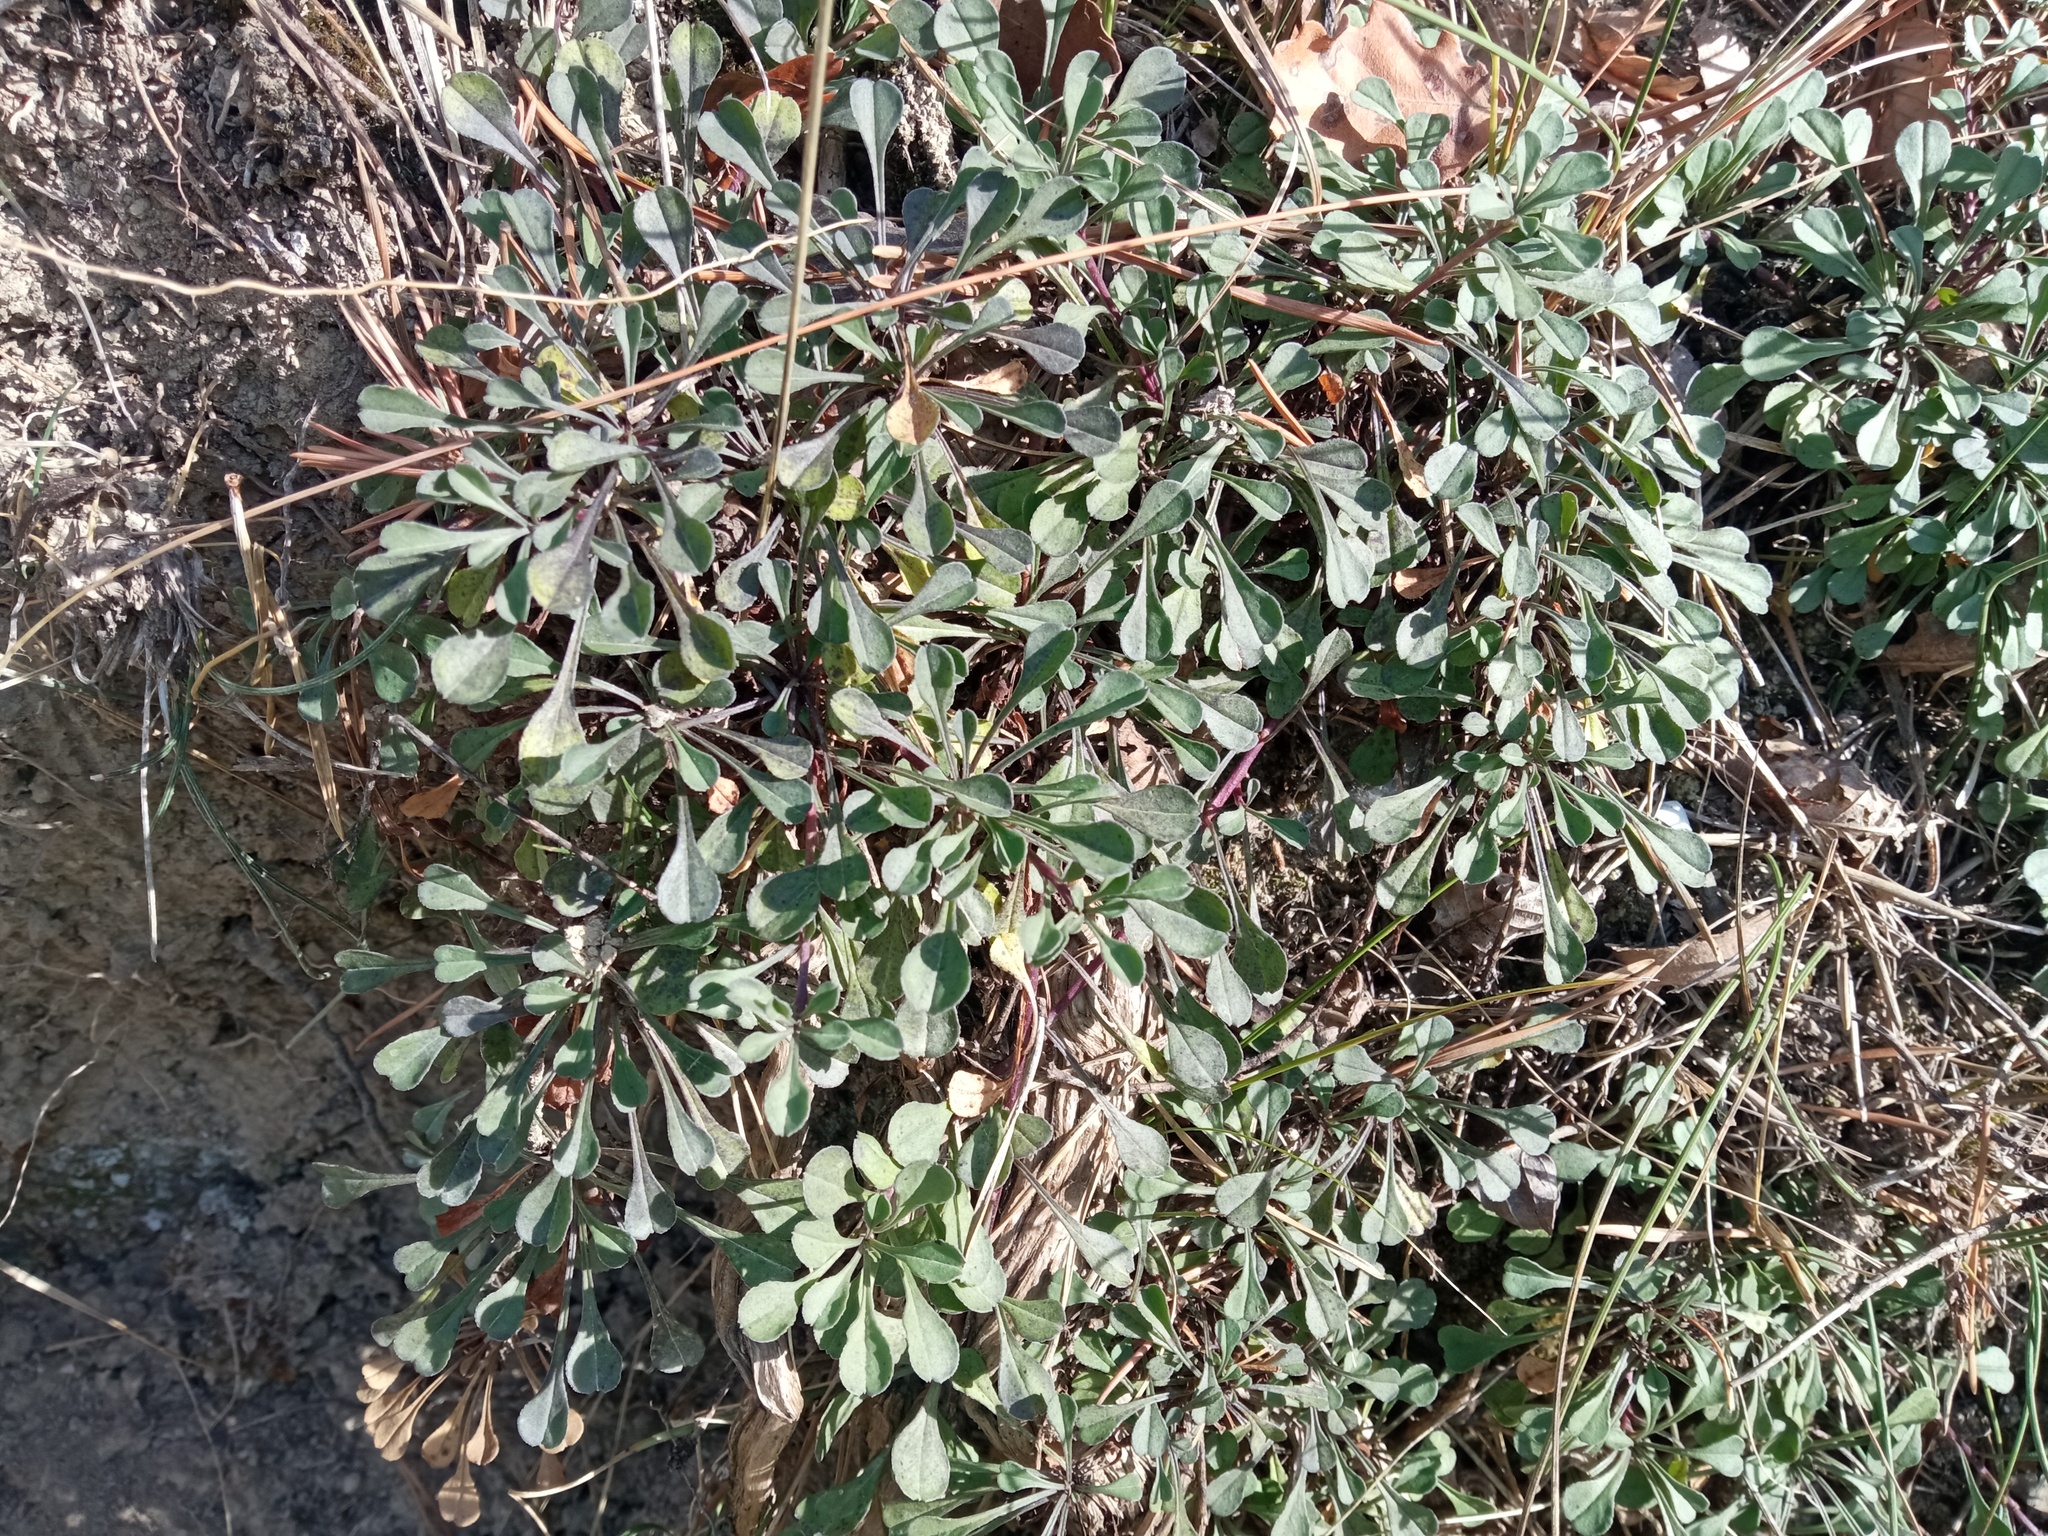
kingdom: Plantae
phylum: Tracheophyta
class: Magnoliopsida
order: Lamiales
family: Plantaginaceae
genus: Globularia
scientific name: Globularia cordifolia
